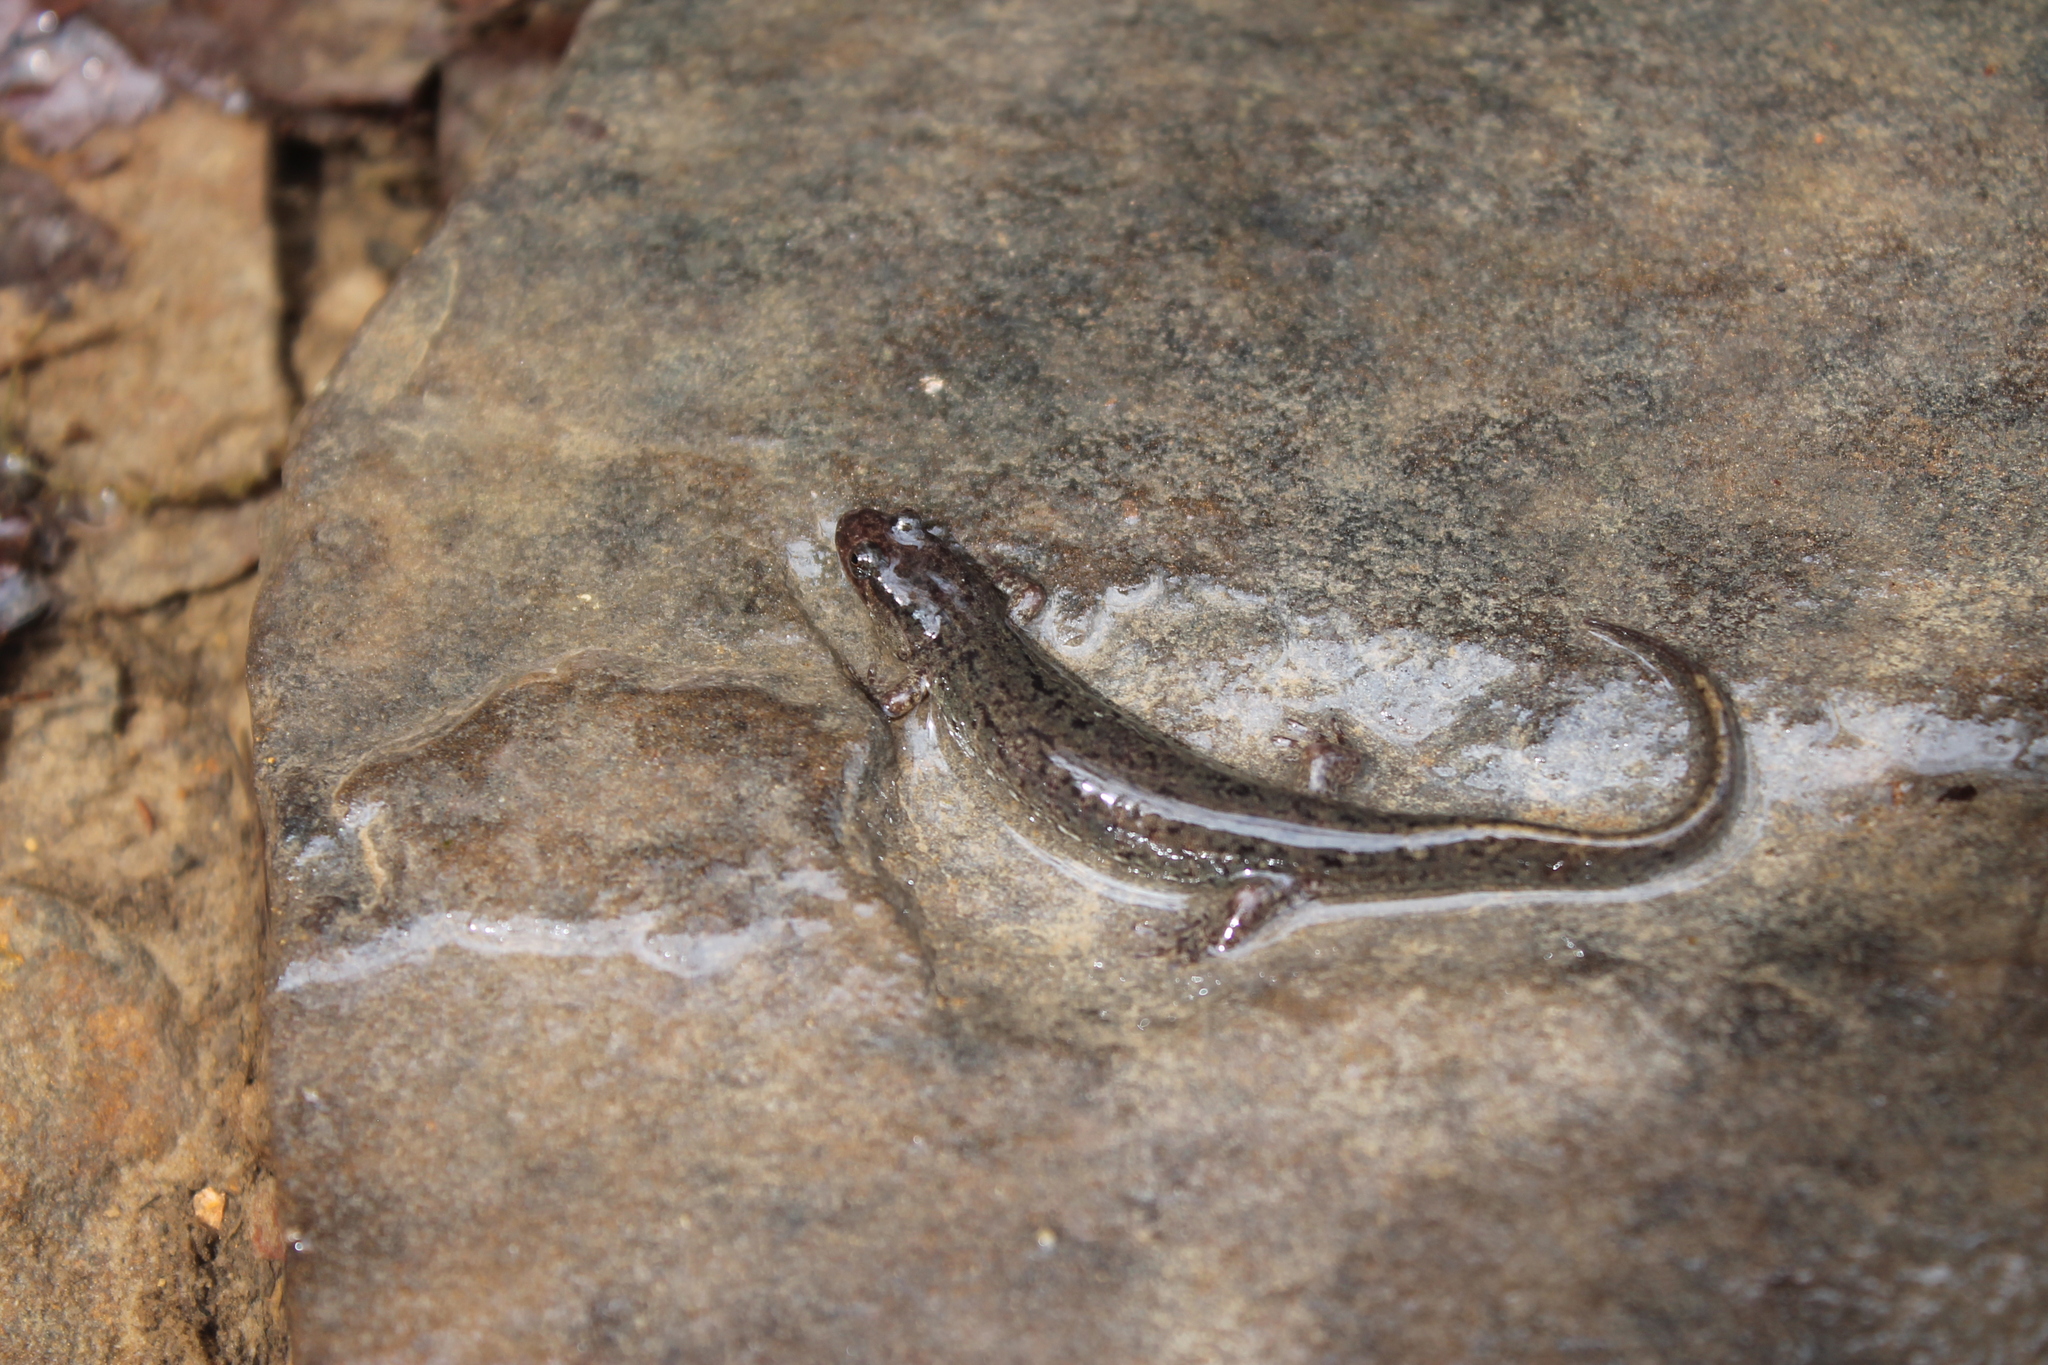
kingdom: Animalia
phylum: Chordata
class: Amphibia
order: Caudata
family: Plethodontidae
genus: Desmognathus
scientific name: Desmognathus
